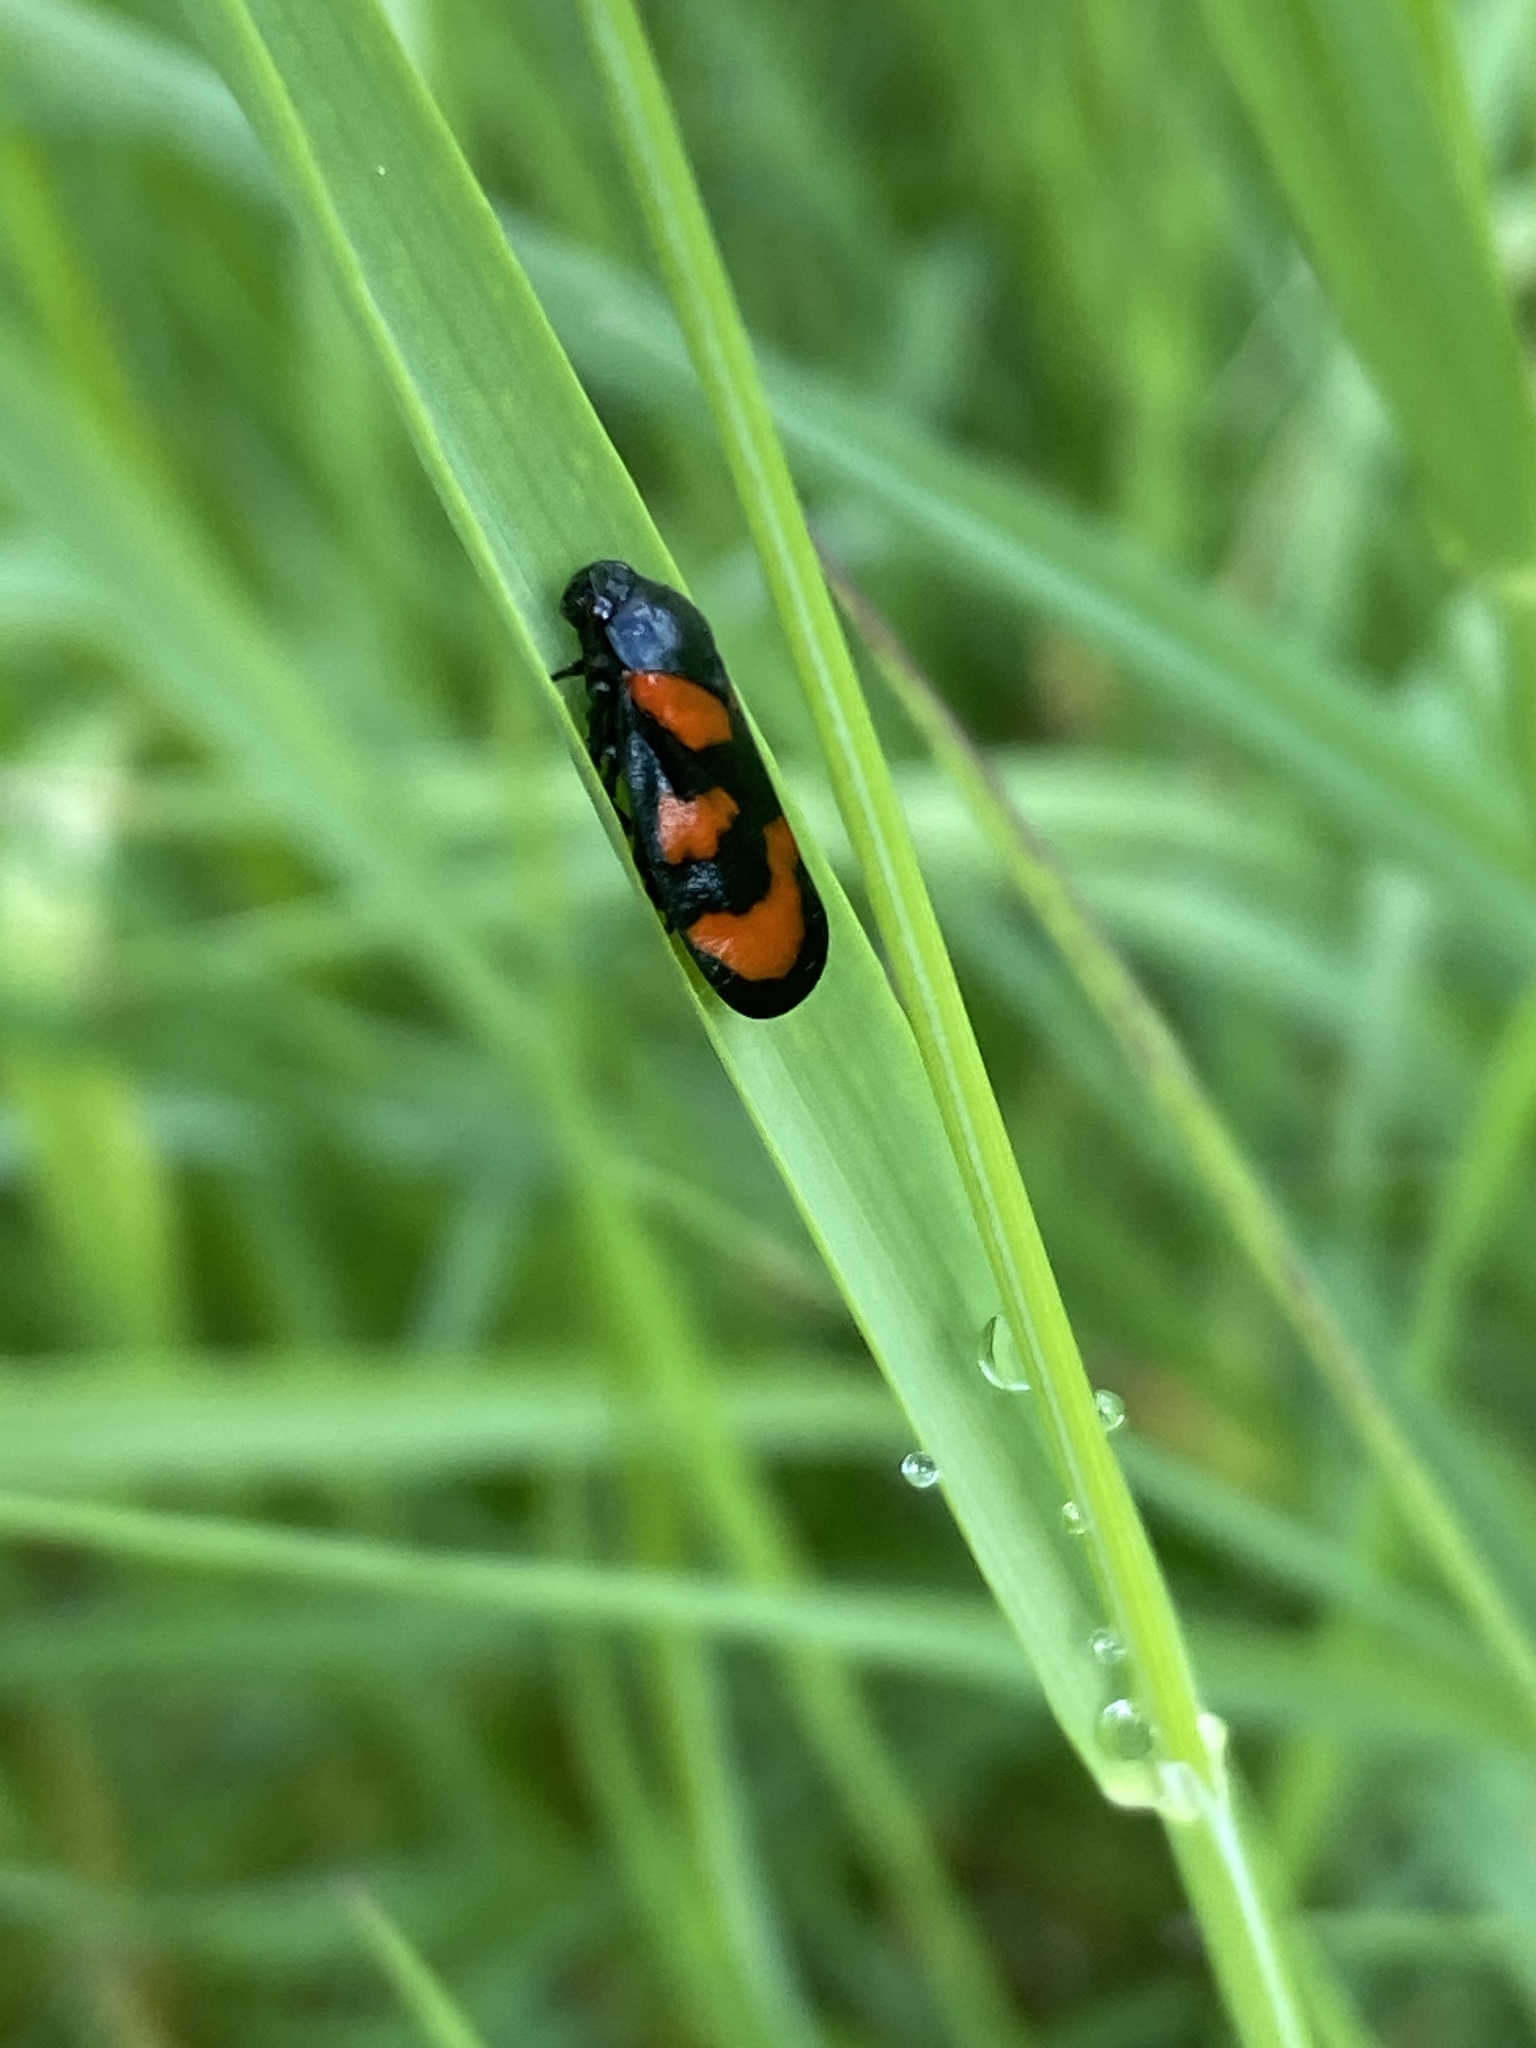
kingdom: Animalia
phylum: Arthropoda
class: Insecta
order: Hemiptera
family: Cercopidae
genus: Cercopis
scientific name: Cercopis vulnerata
